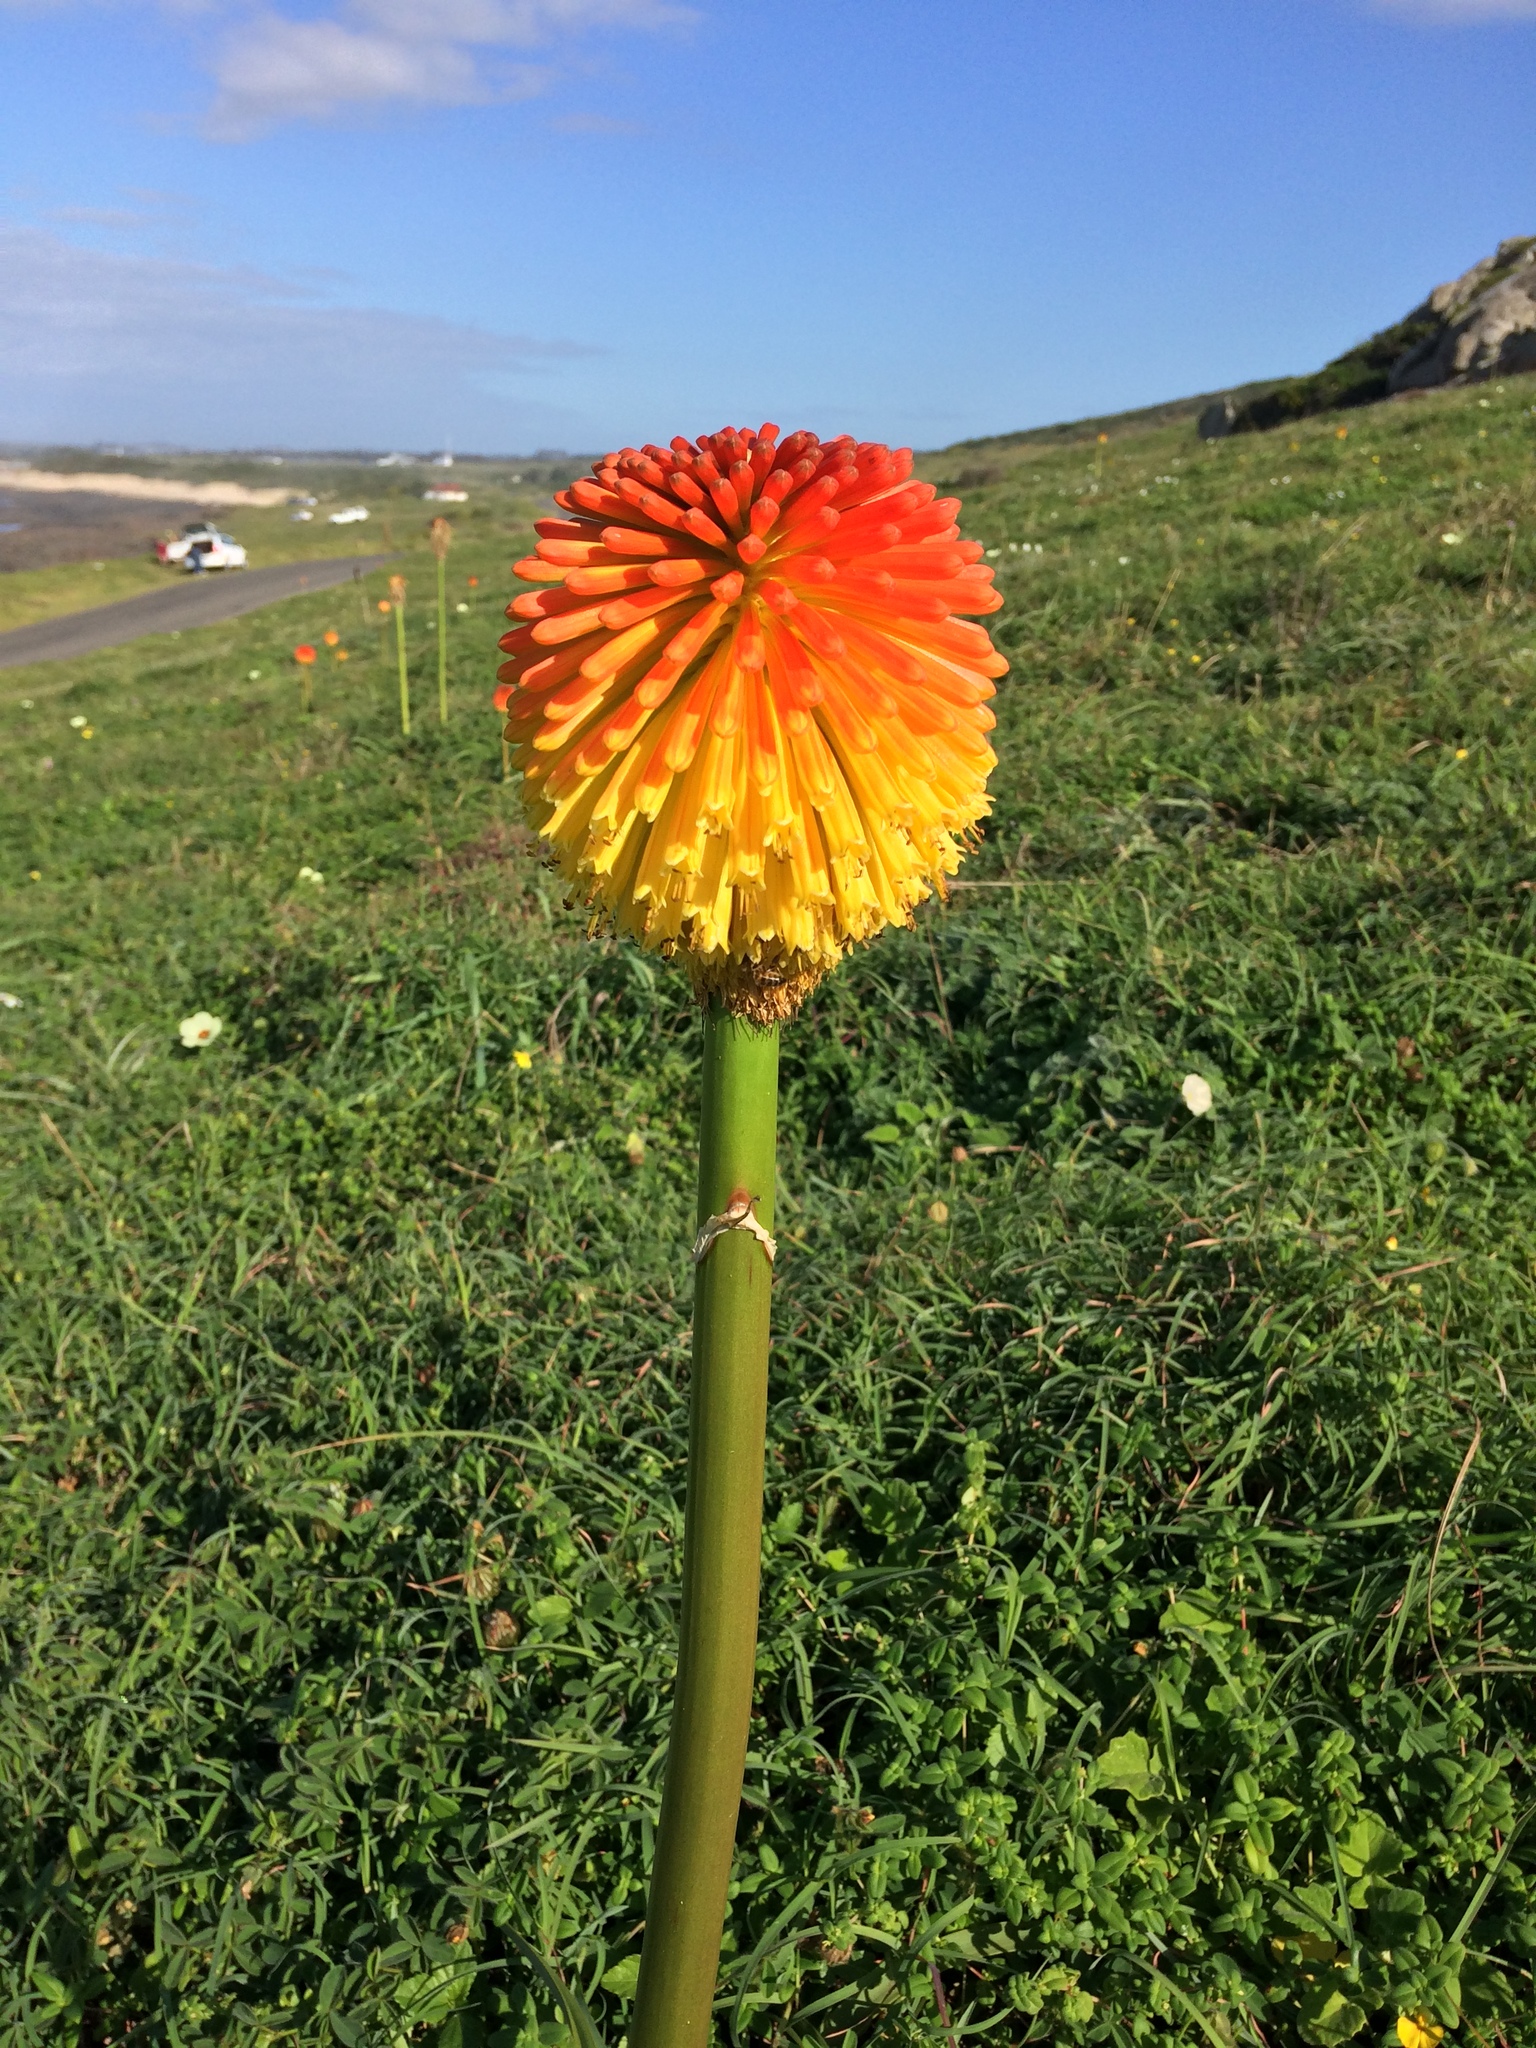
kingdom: Plantae
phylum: Tracheophyta
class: Liliopsida
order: Asparagales
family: Asphodelaceae
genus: Kniphofia
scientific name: Kniphofia rooperi
